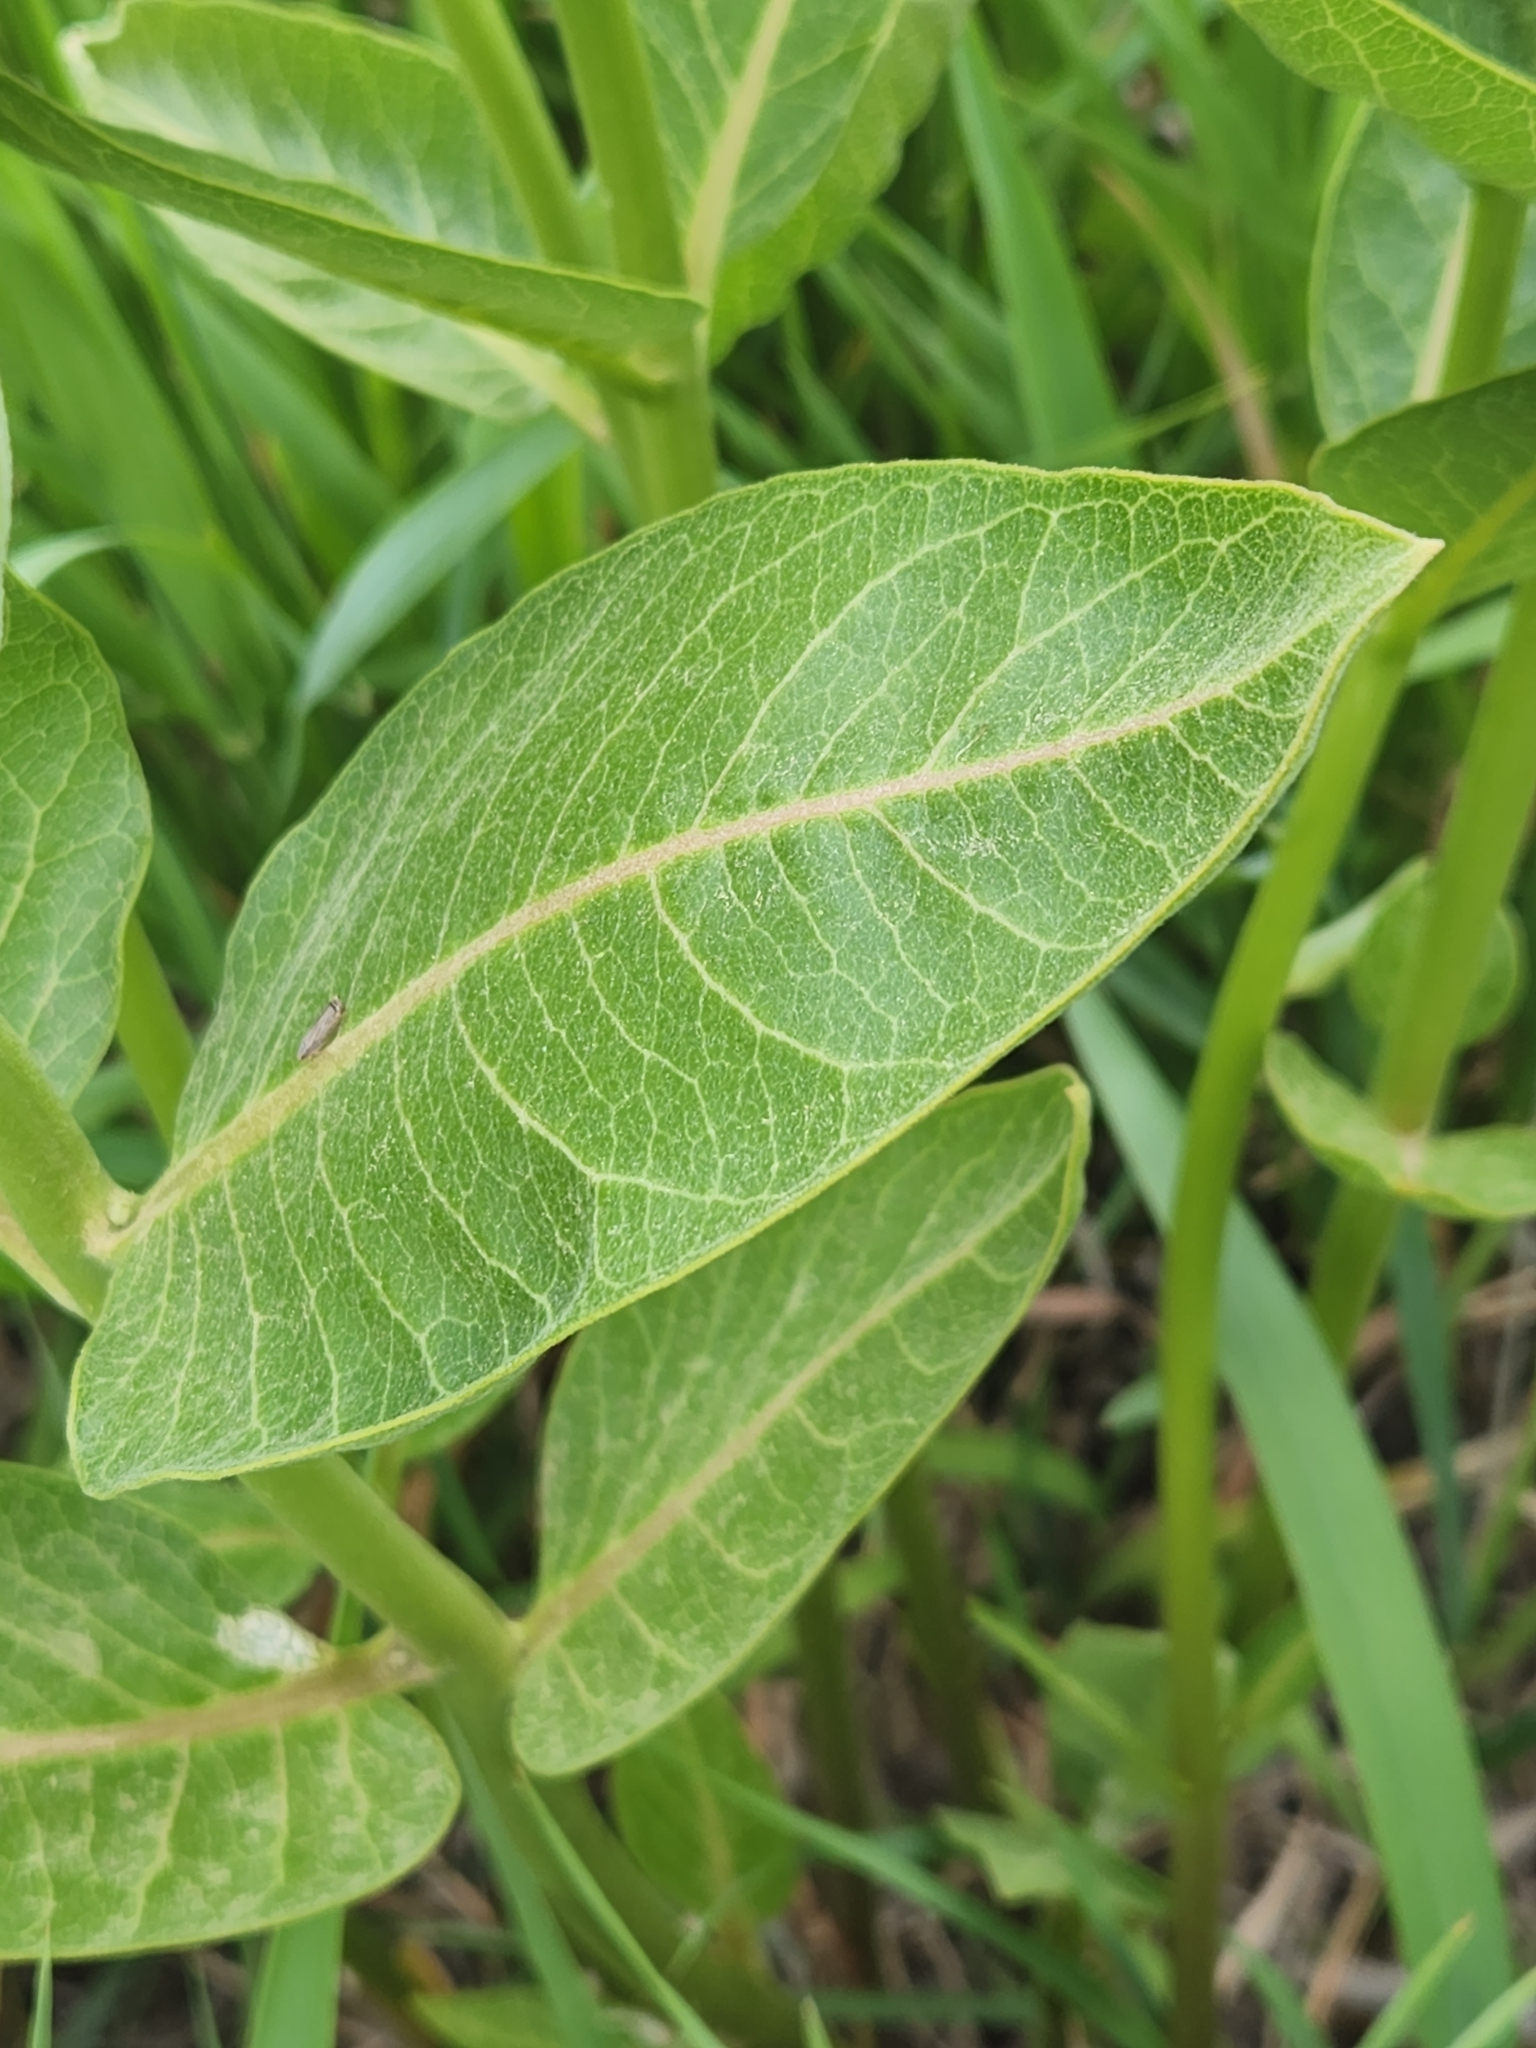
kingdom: Plantae
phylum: Tracheophyta
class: Magnoliopsida
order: Gentianales
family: Apocynaceae
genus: Asclepias
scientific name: Asclepias speciosa
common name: Showy milkweed
